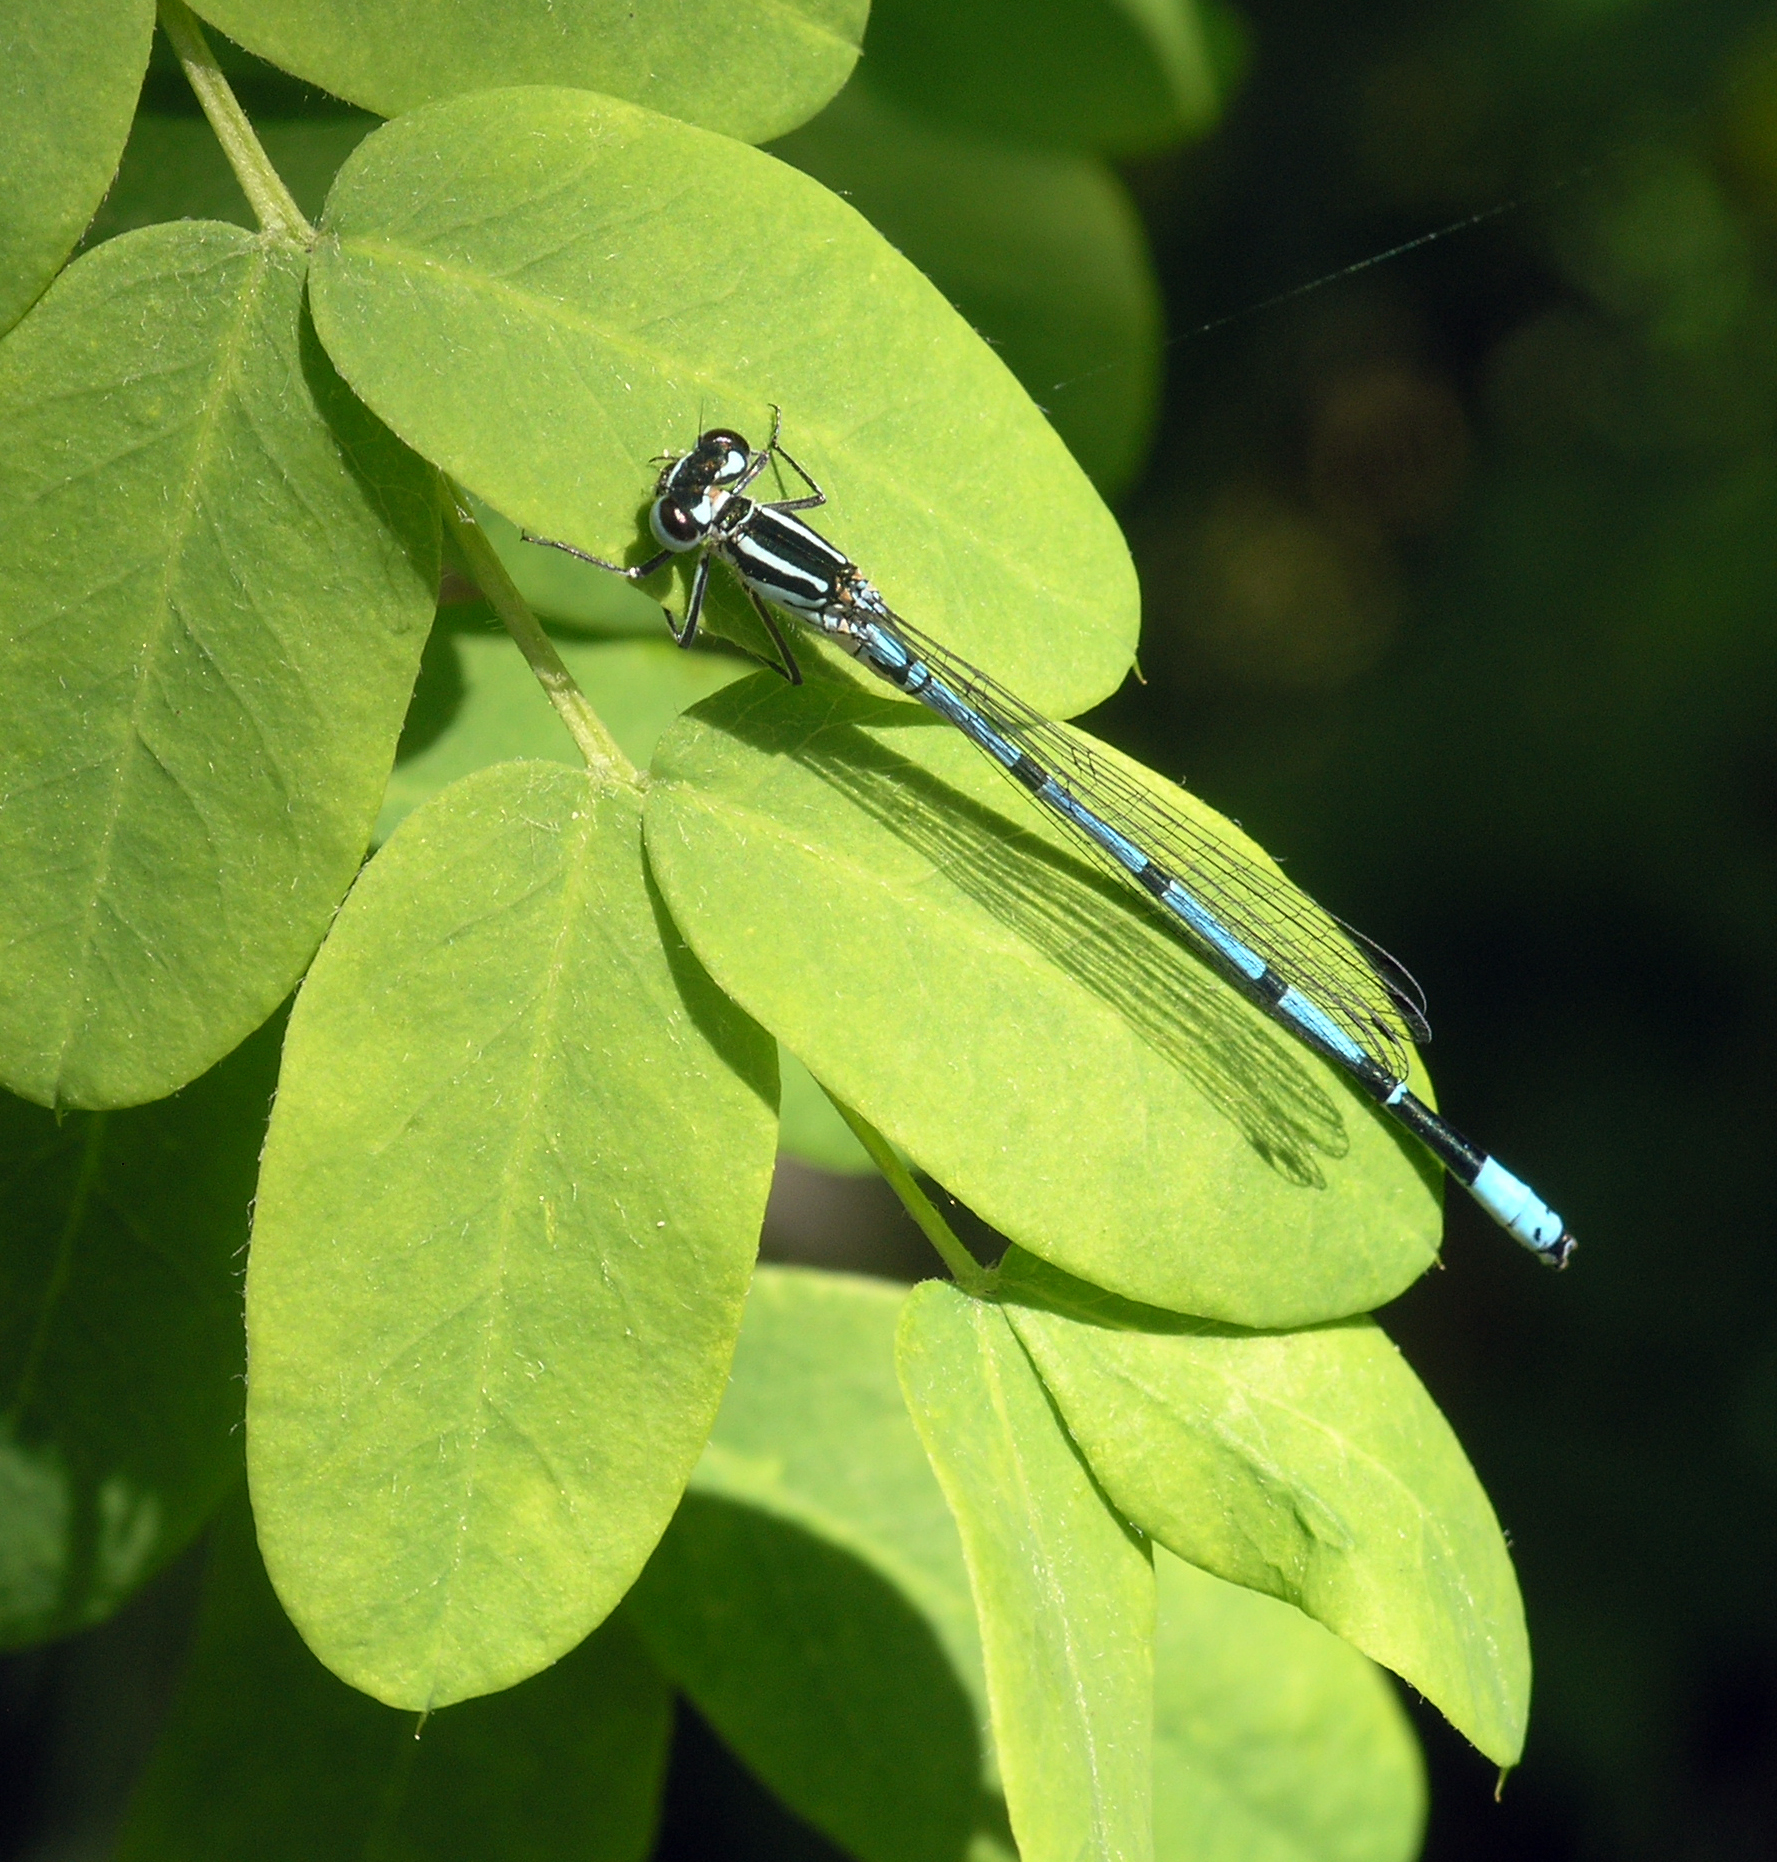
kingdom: Animalia
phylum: Arthropoda
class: Insecta
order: Odonata
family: Coenagrionidae
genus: Coenagrion
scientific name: Coenagrion puella
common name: Azure damselfly
